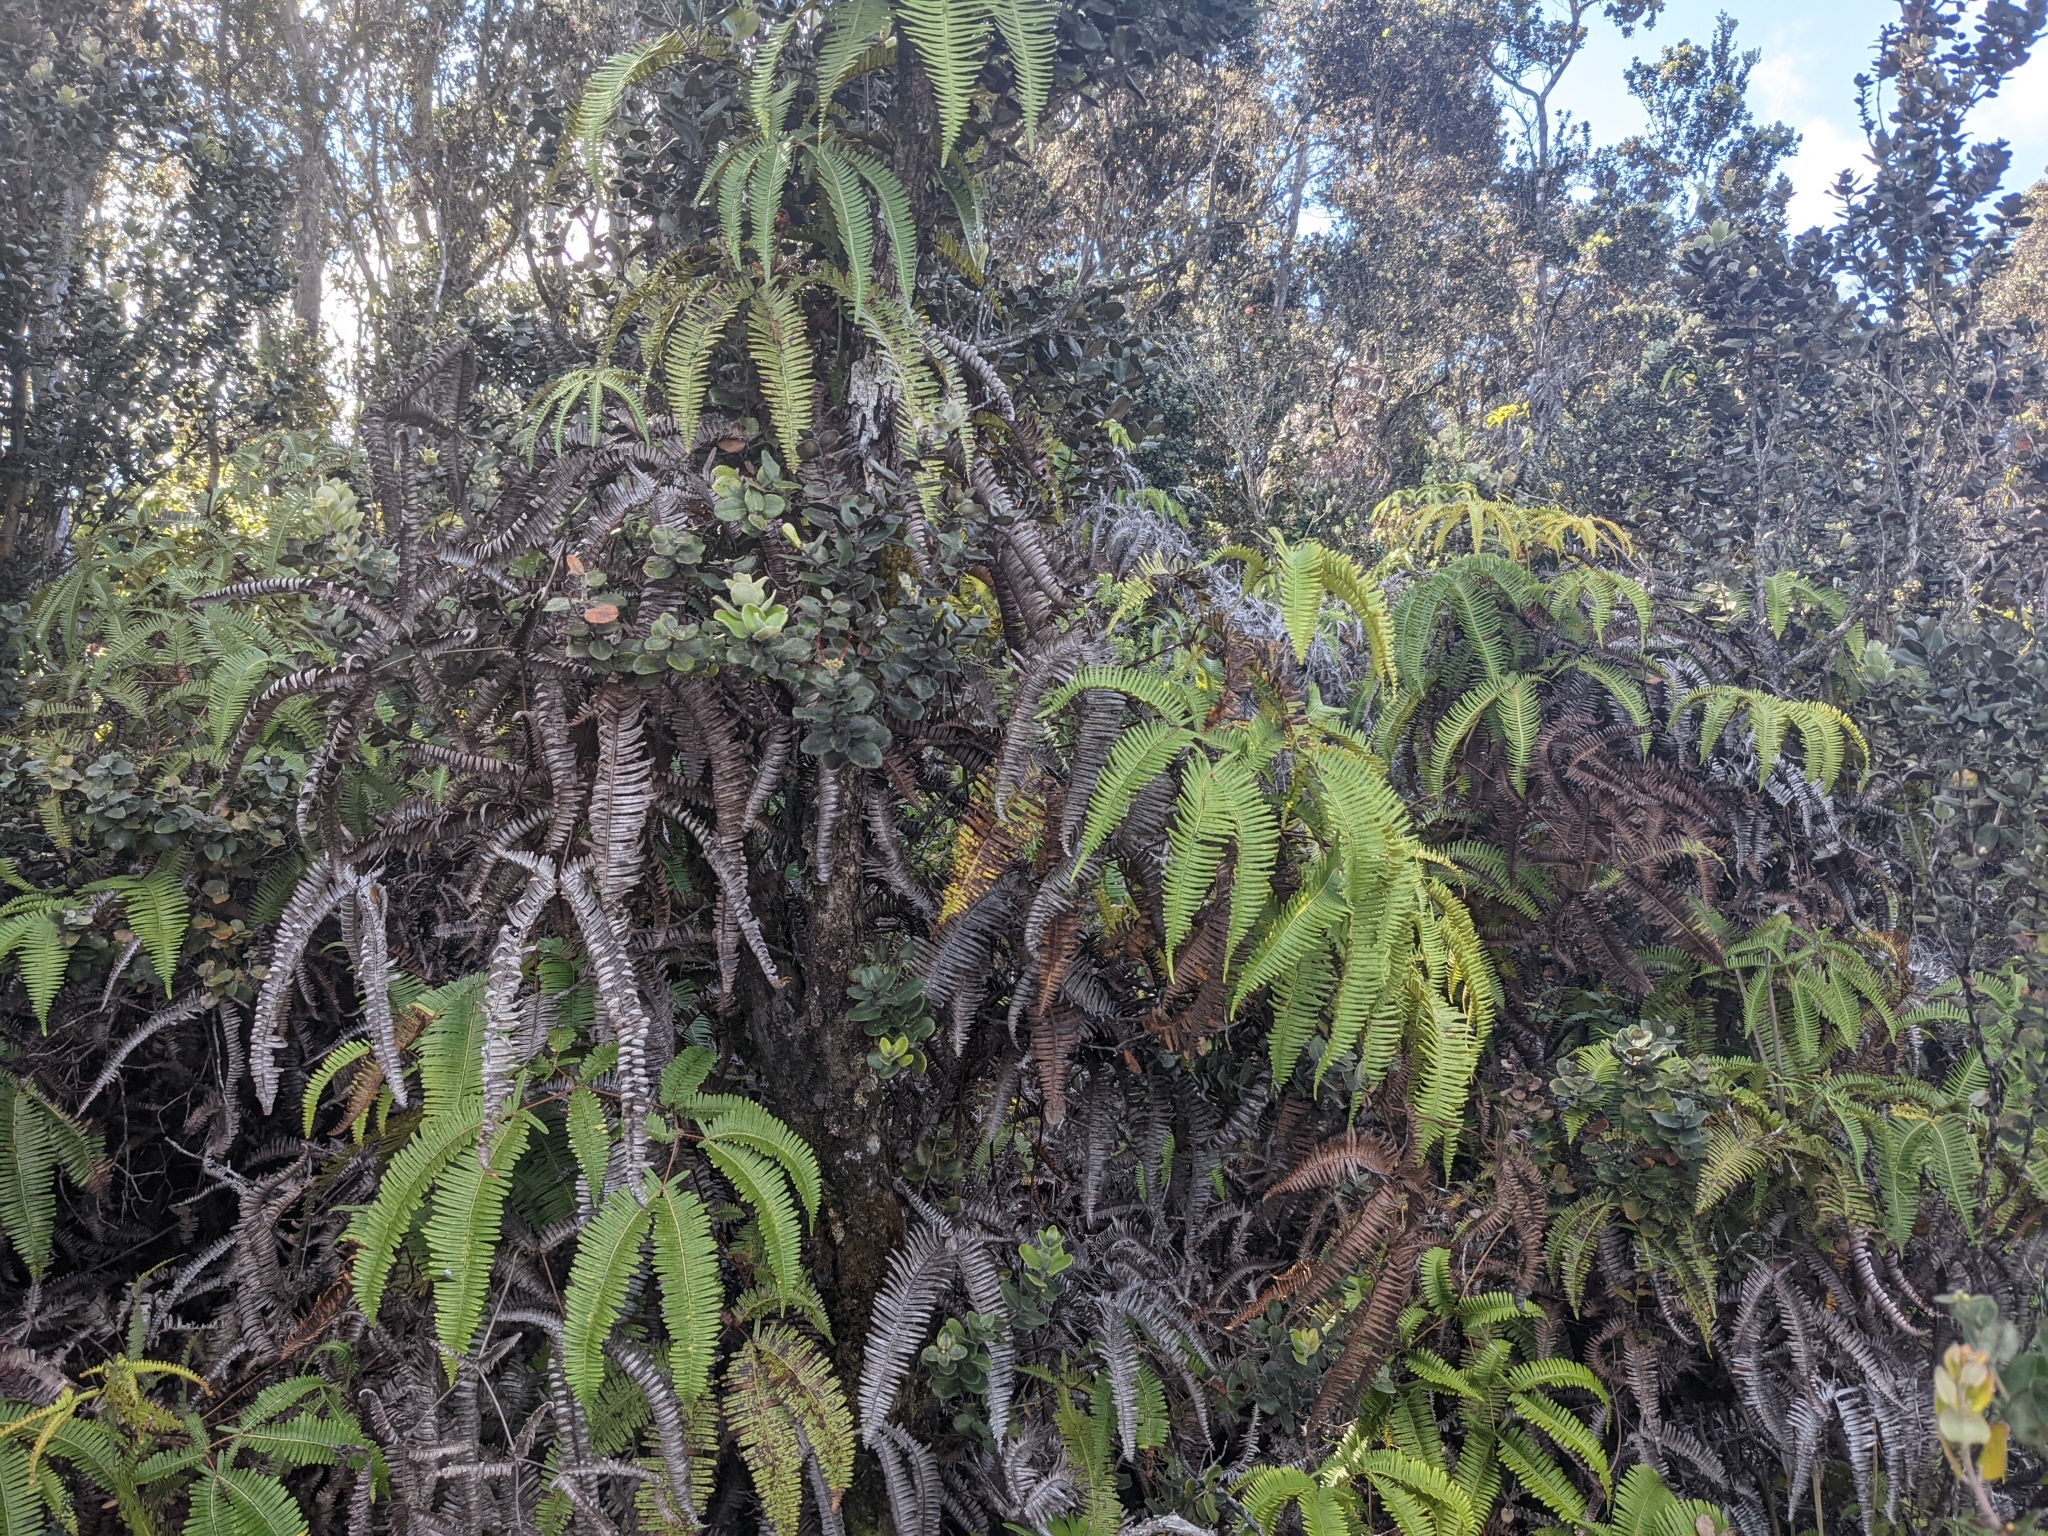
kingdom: Plantae
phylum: Tracheophyta
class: Polypodiopsida
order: Gleicheniales
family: Gleicheniaceae
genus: Dicranopteris
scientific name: Dicranopteris linearis
